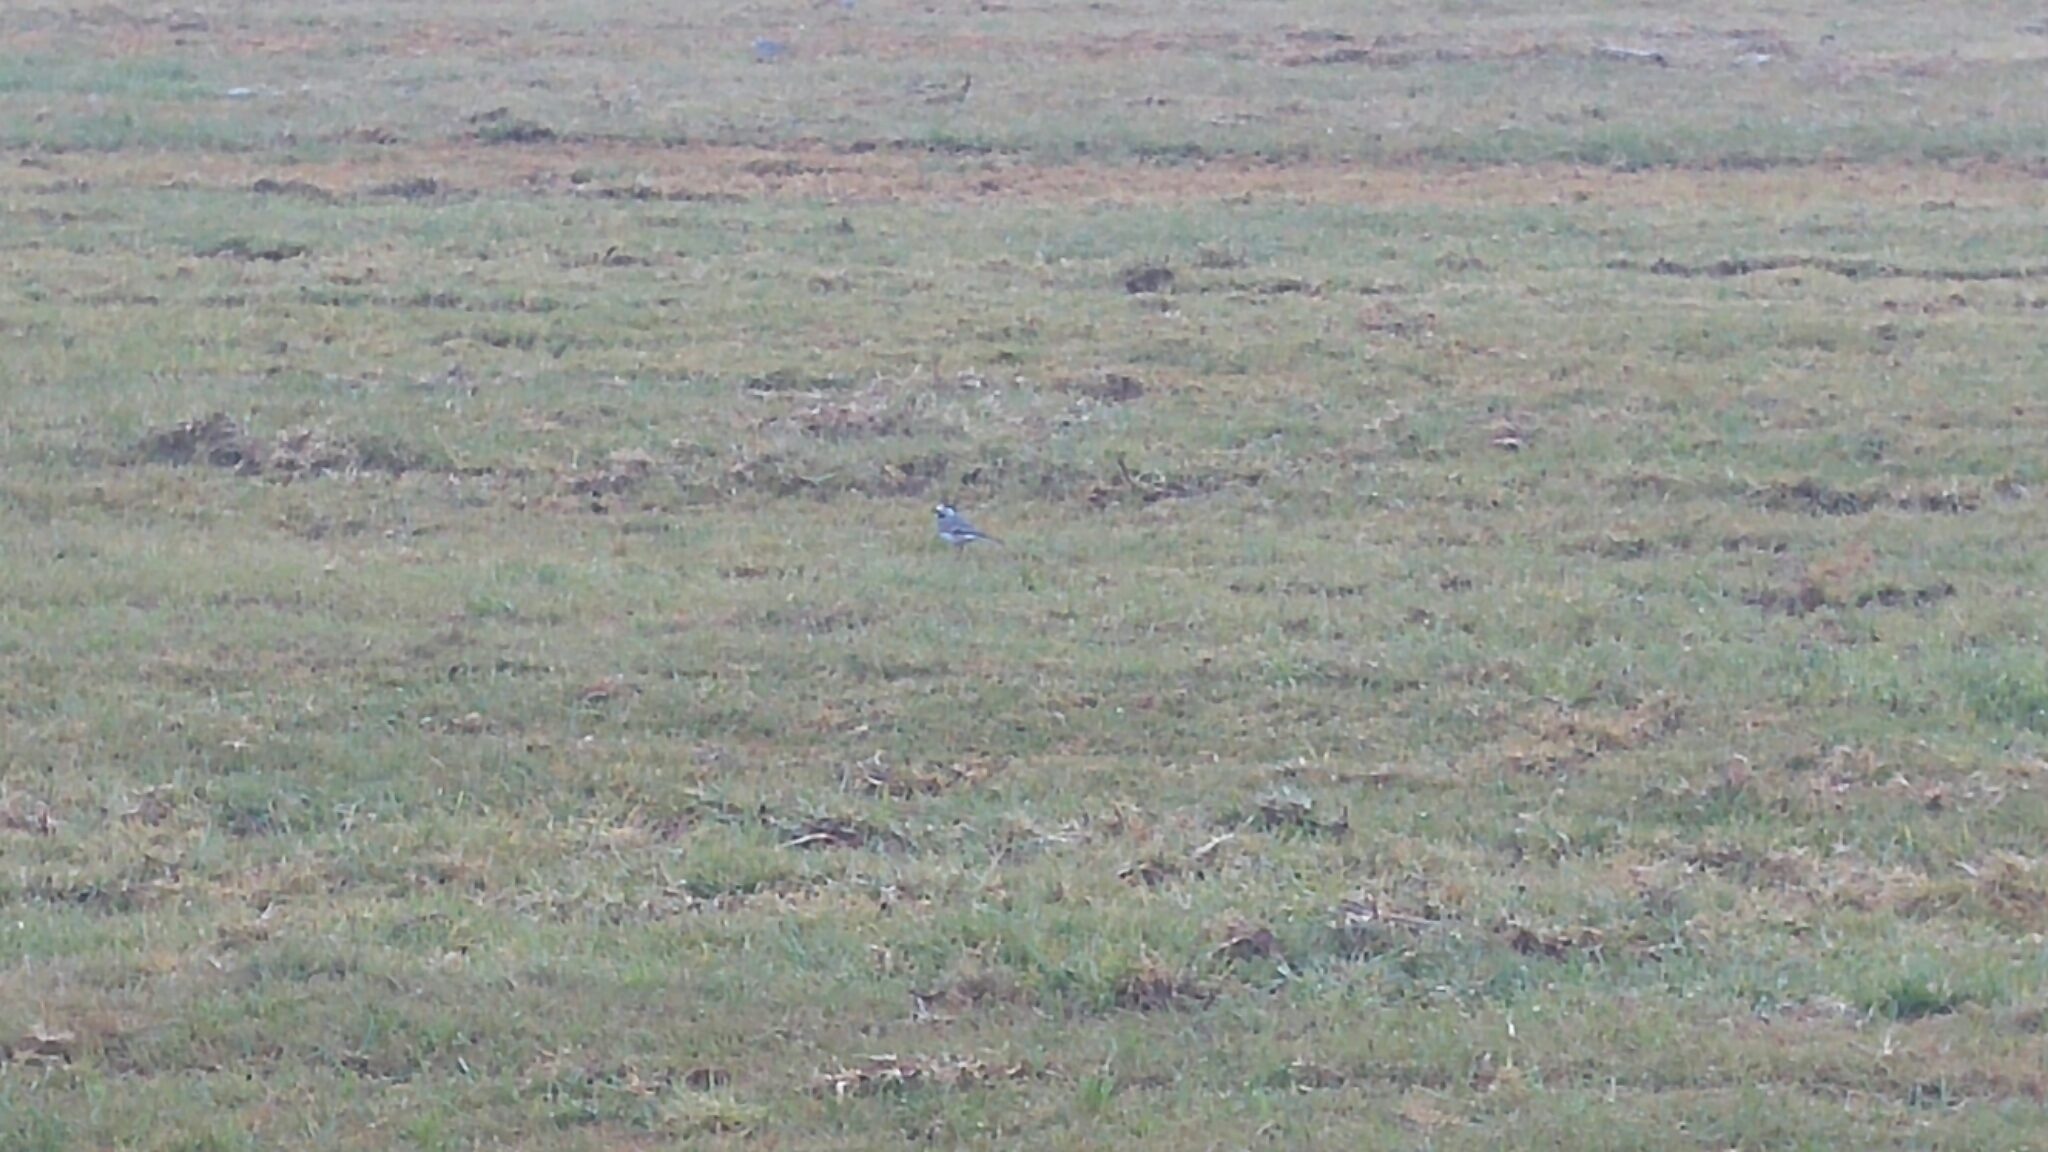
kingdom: Animalia
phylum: Chordata
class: Aves
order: Passeriformes
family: Motacillidae
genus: Motacilla
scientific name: Motacilla alba
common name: White wagtail
